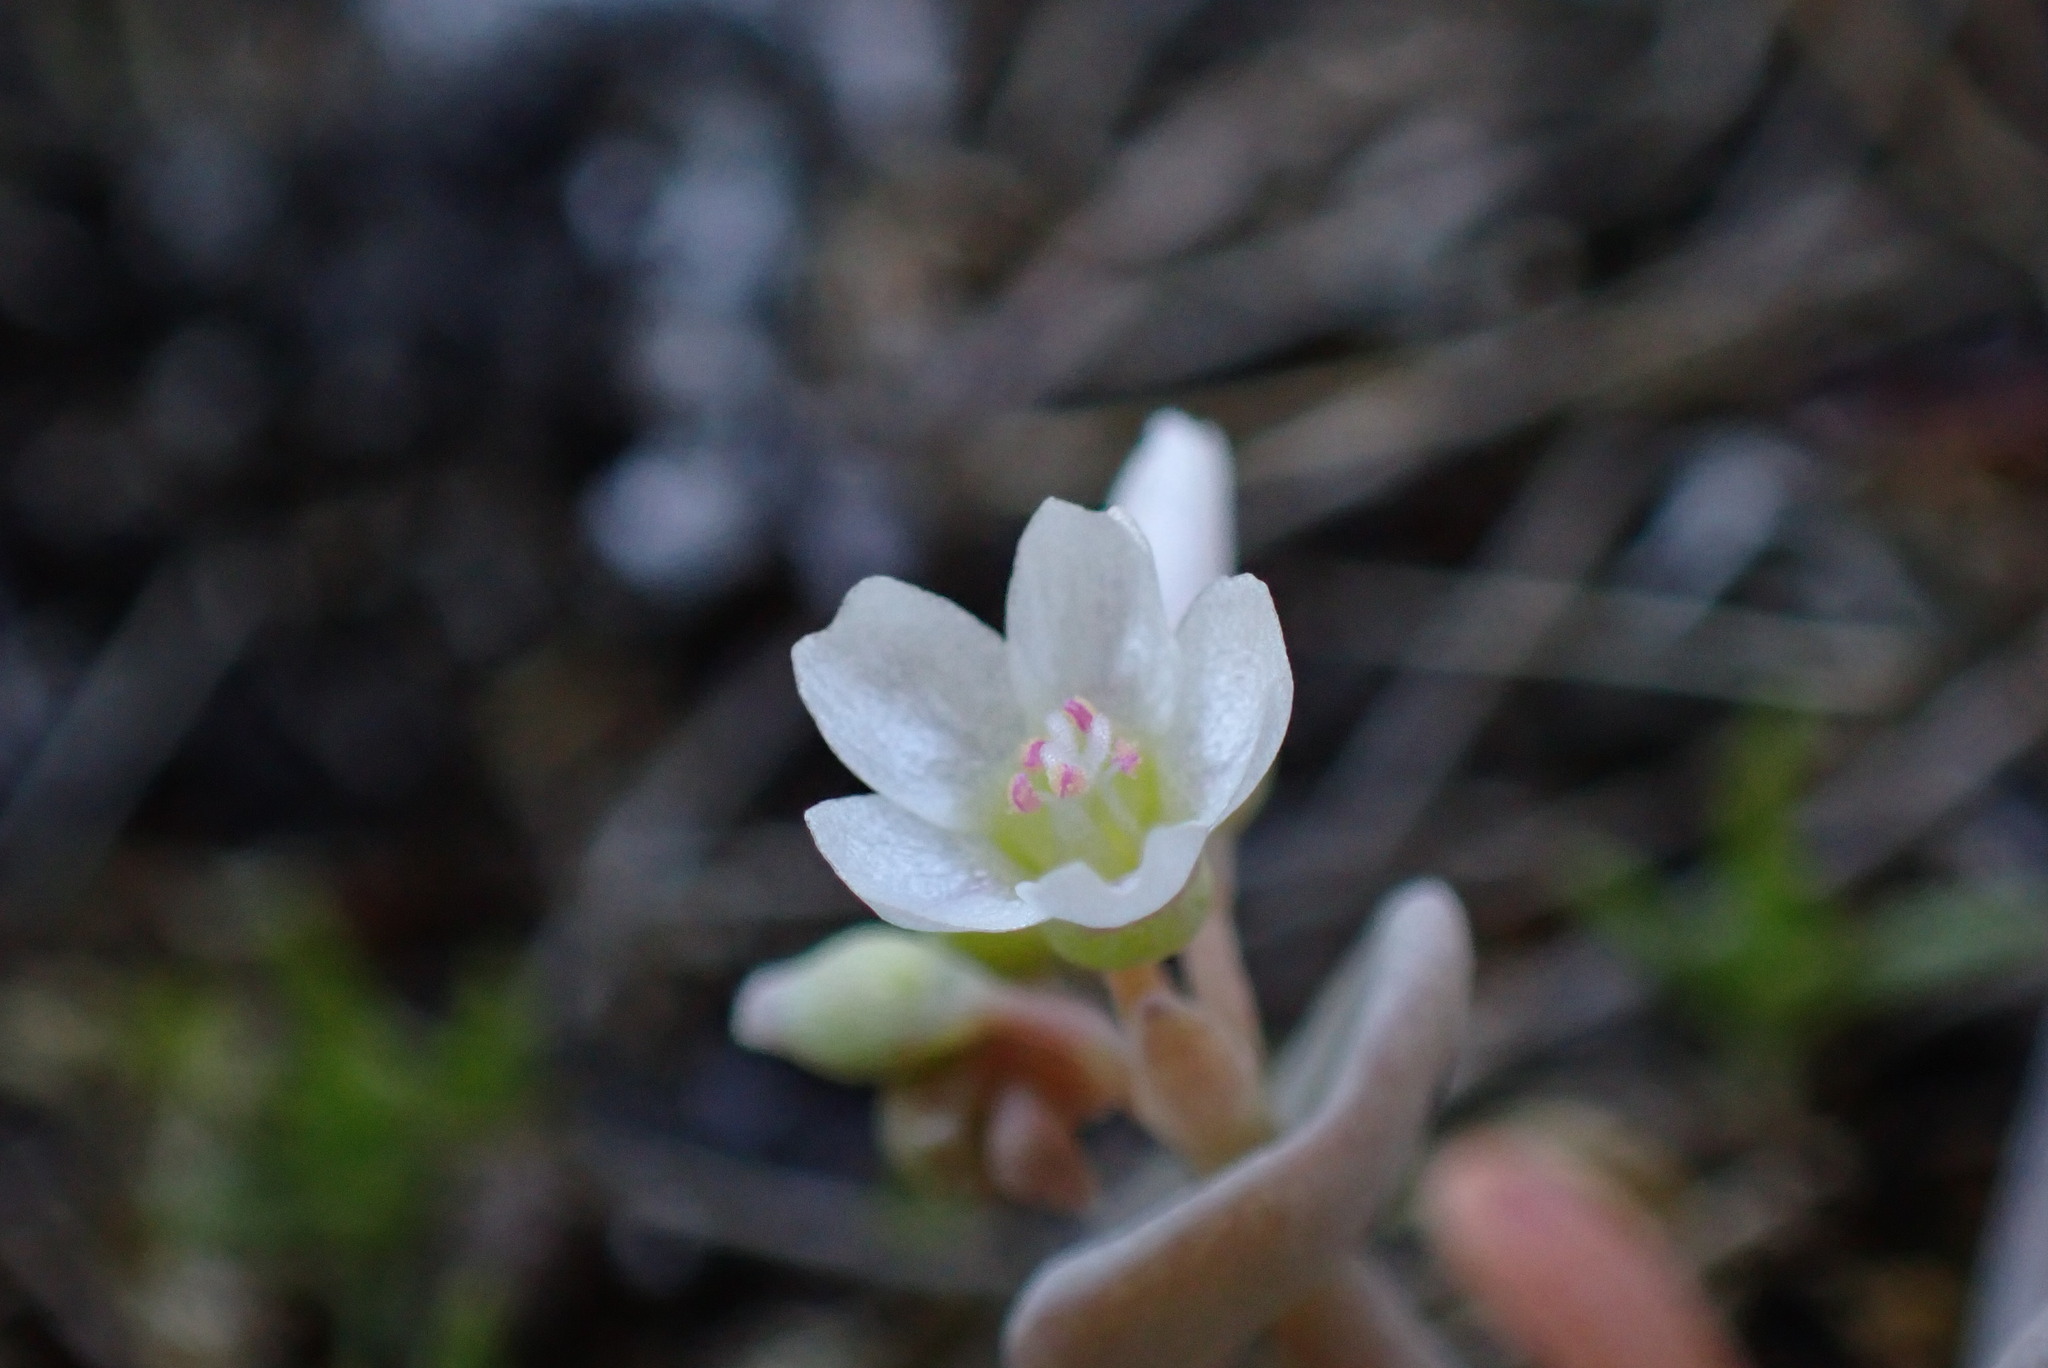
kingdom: Plantae
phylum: Tracheophyta
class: Magnoliopsida
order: Caryophyllales
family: Montiaceae
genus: Claytonia
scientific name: Claytonia exigua
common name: Pale spring beauty
